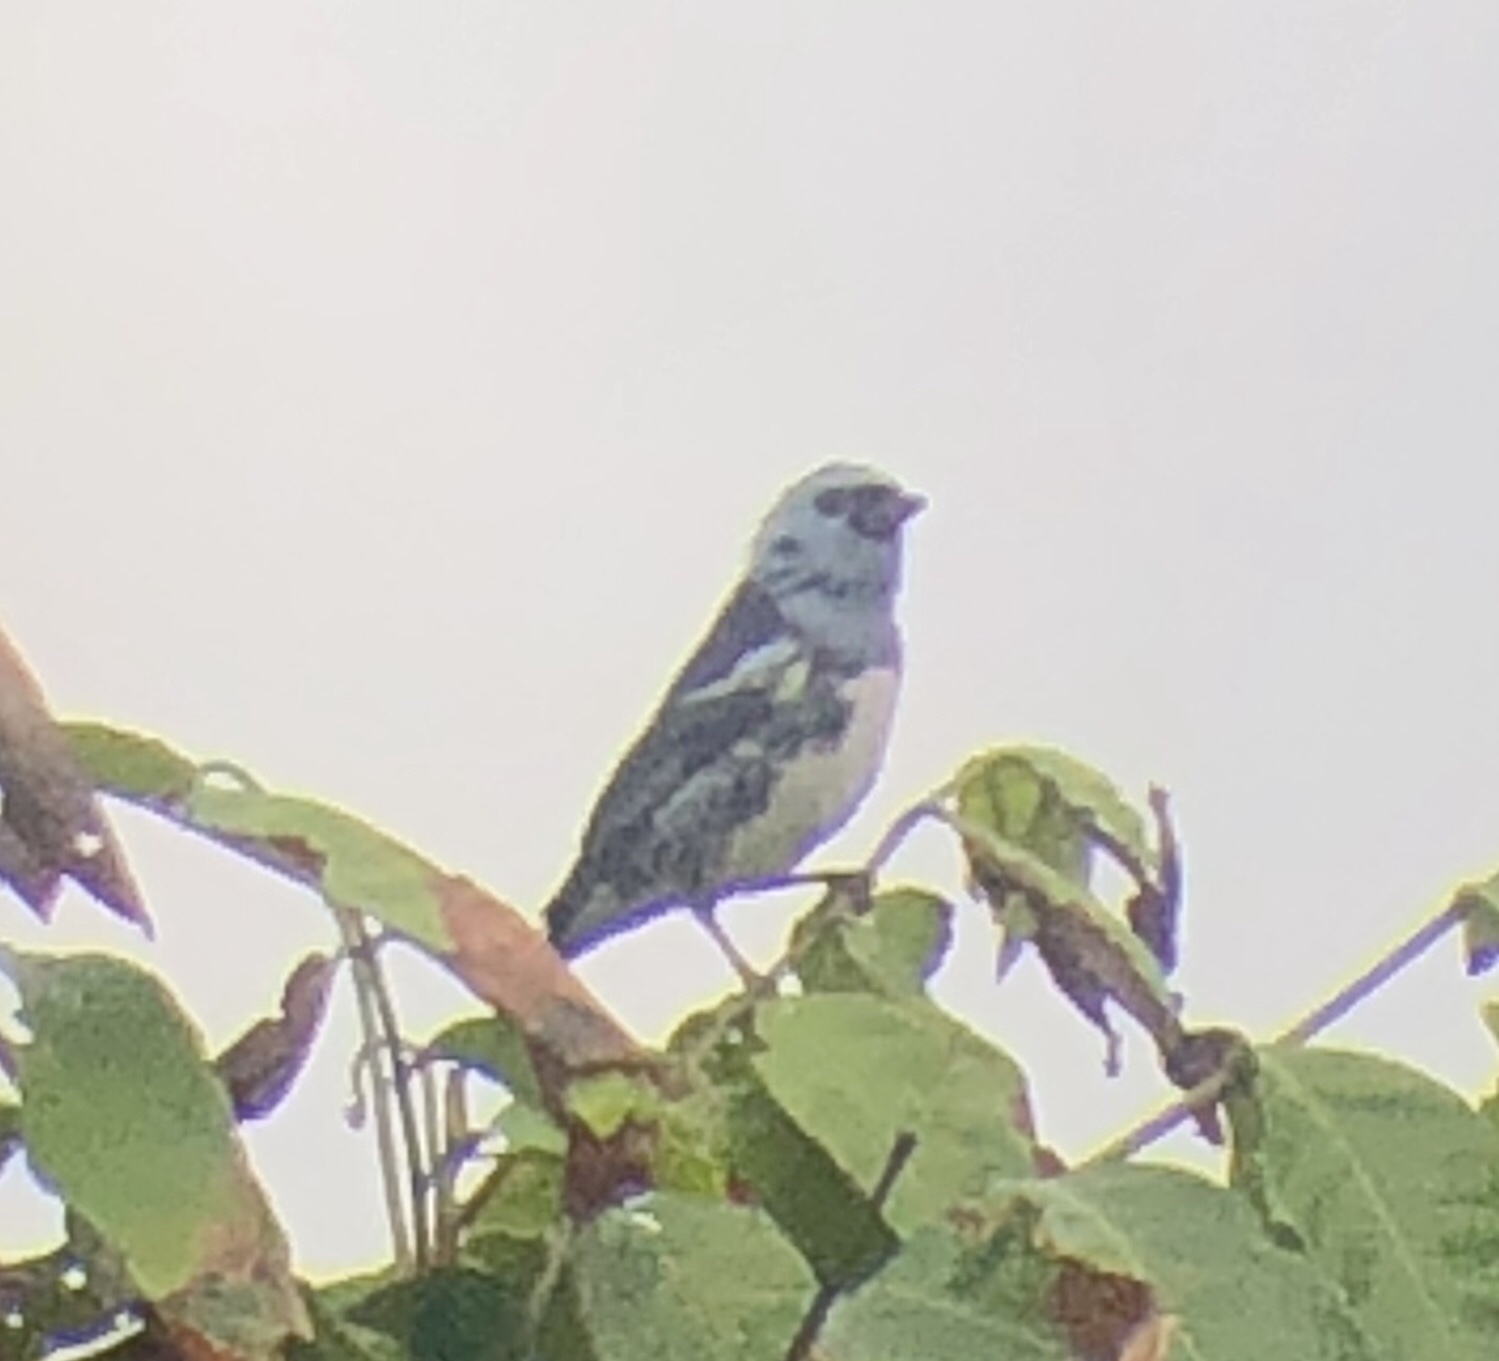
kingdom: Animalia
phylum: Chordata
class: Aves
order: Passeriformes
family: Thraupidae
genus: Tangara
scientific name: Tangara mexicana
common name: Turquoise tanager
